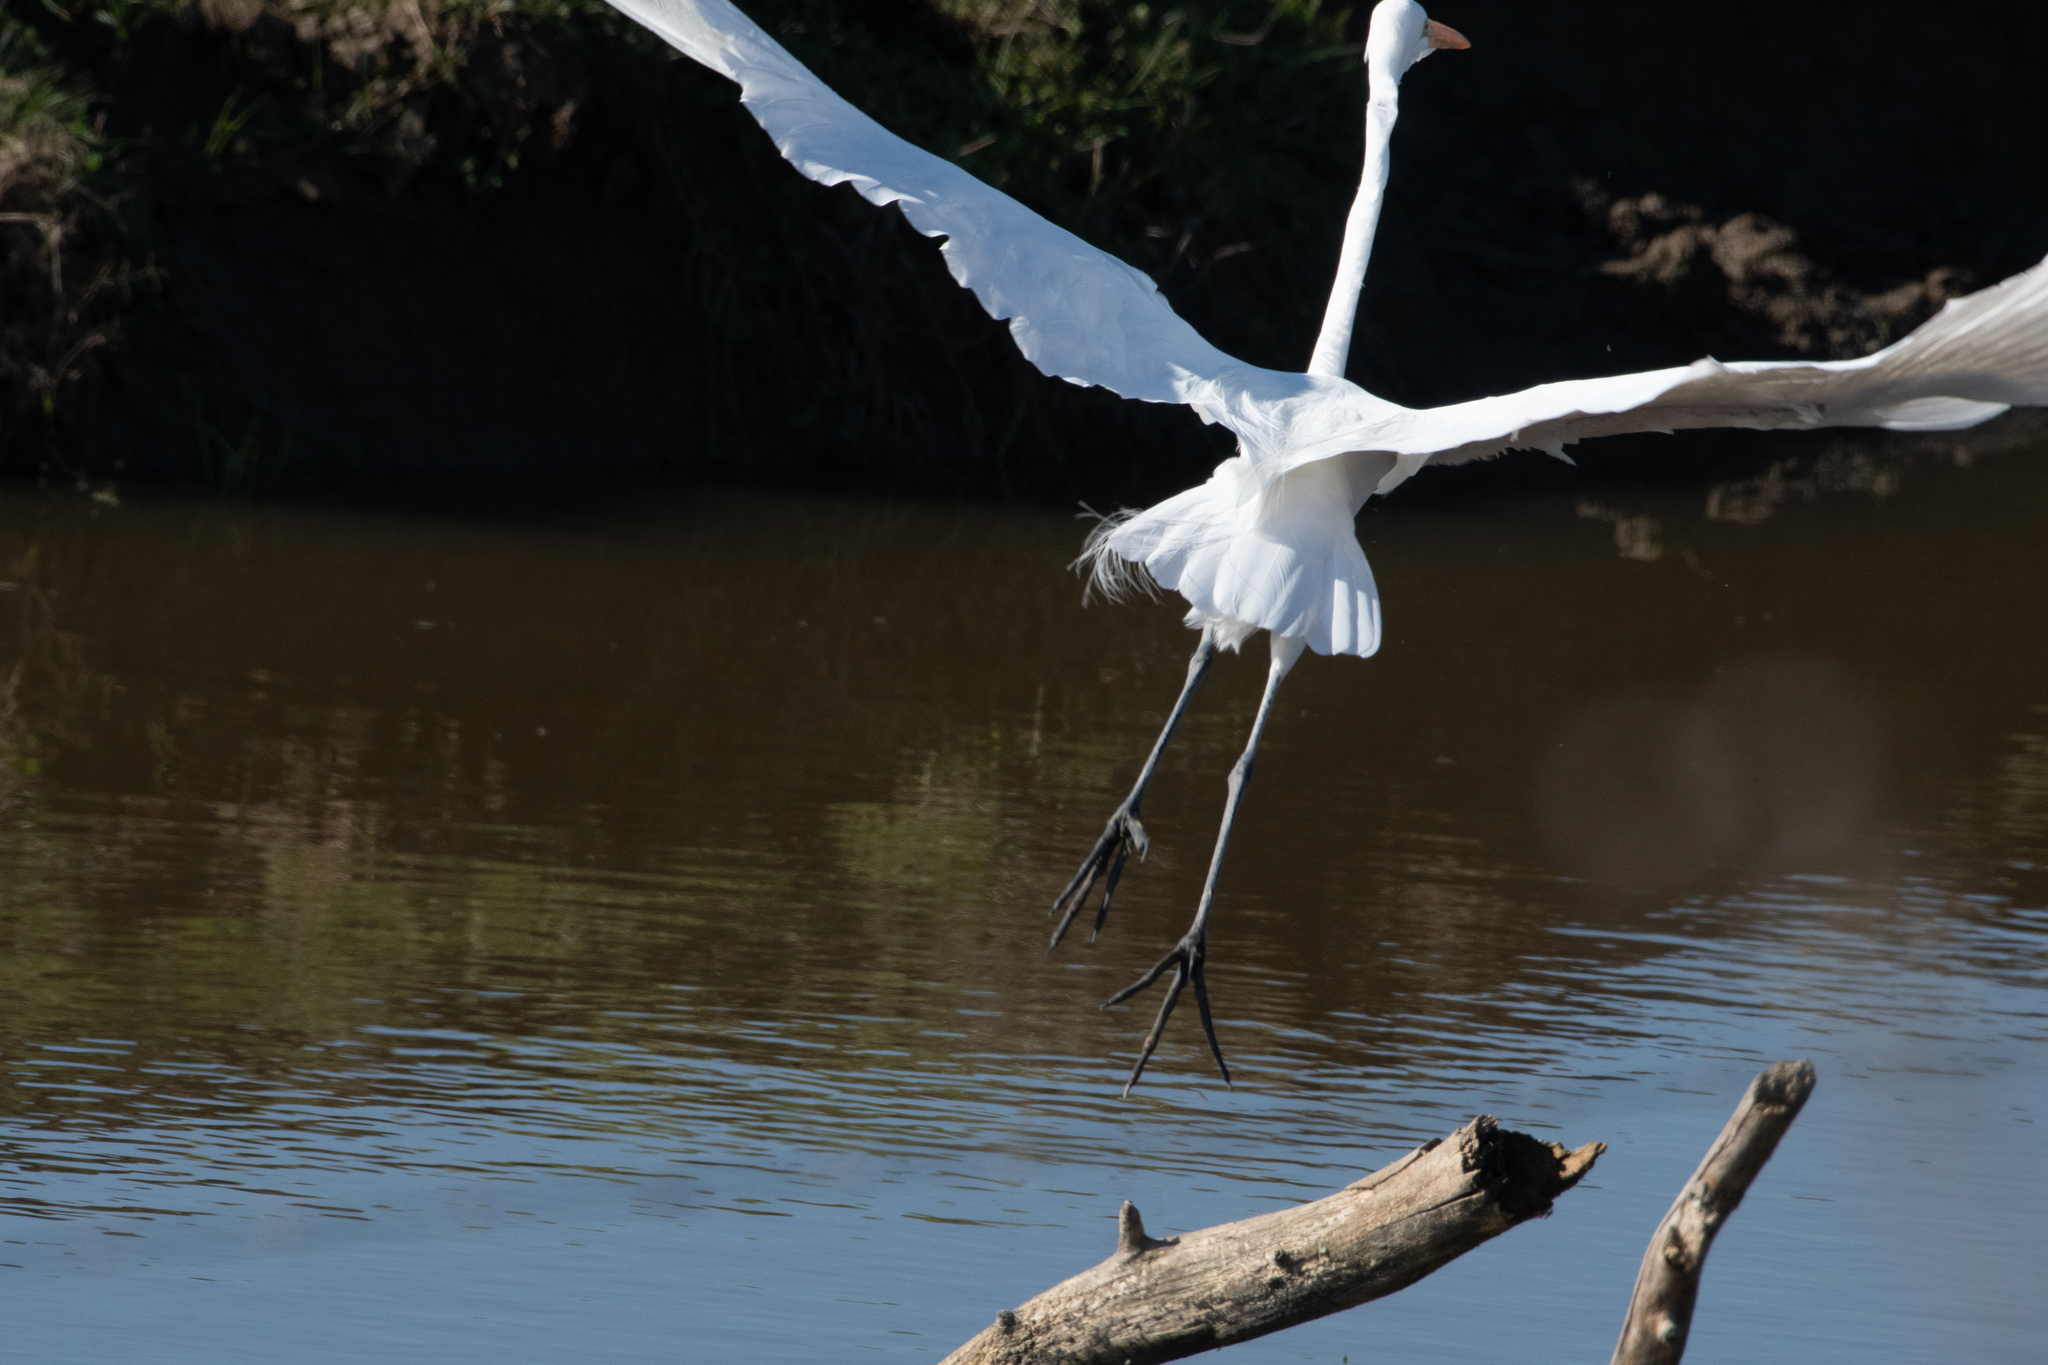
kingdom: Animalia
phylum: Chordata
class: Aves
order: Pelecaniformes
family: Ardeidae
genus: Ardea
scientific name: Ardea alba
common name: Great egret
